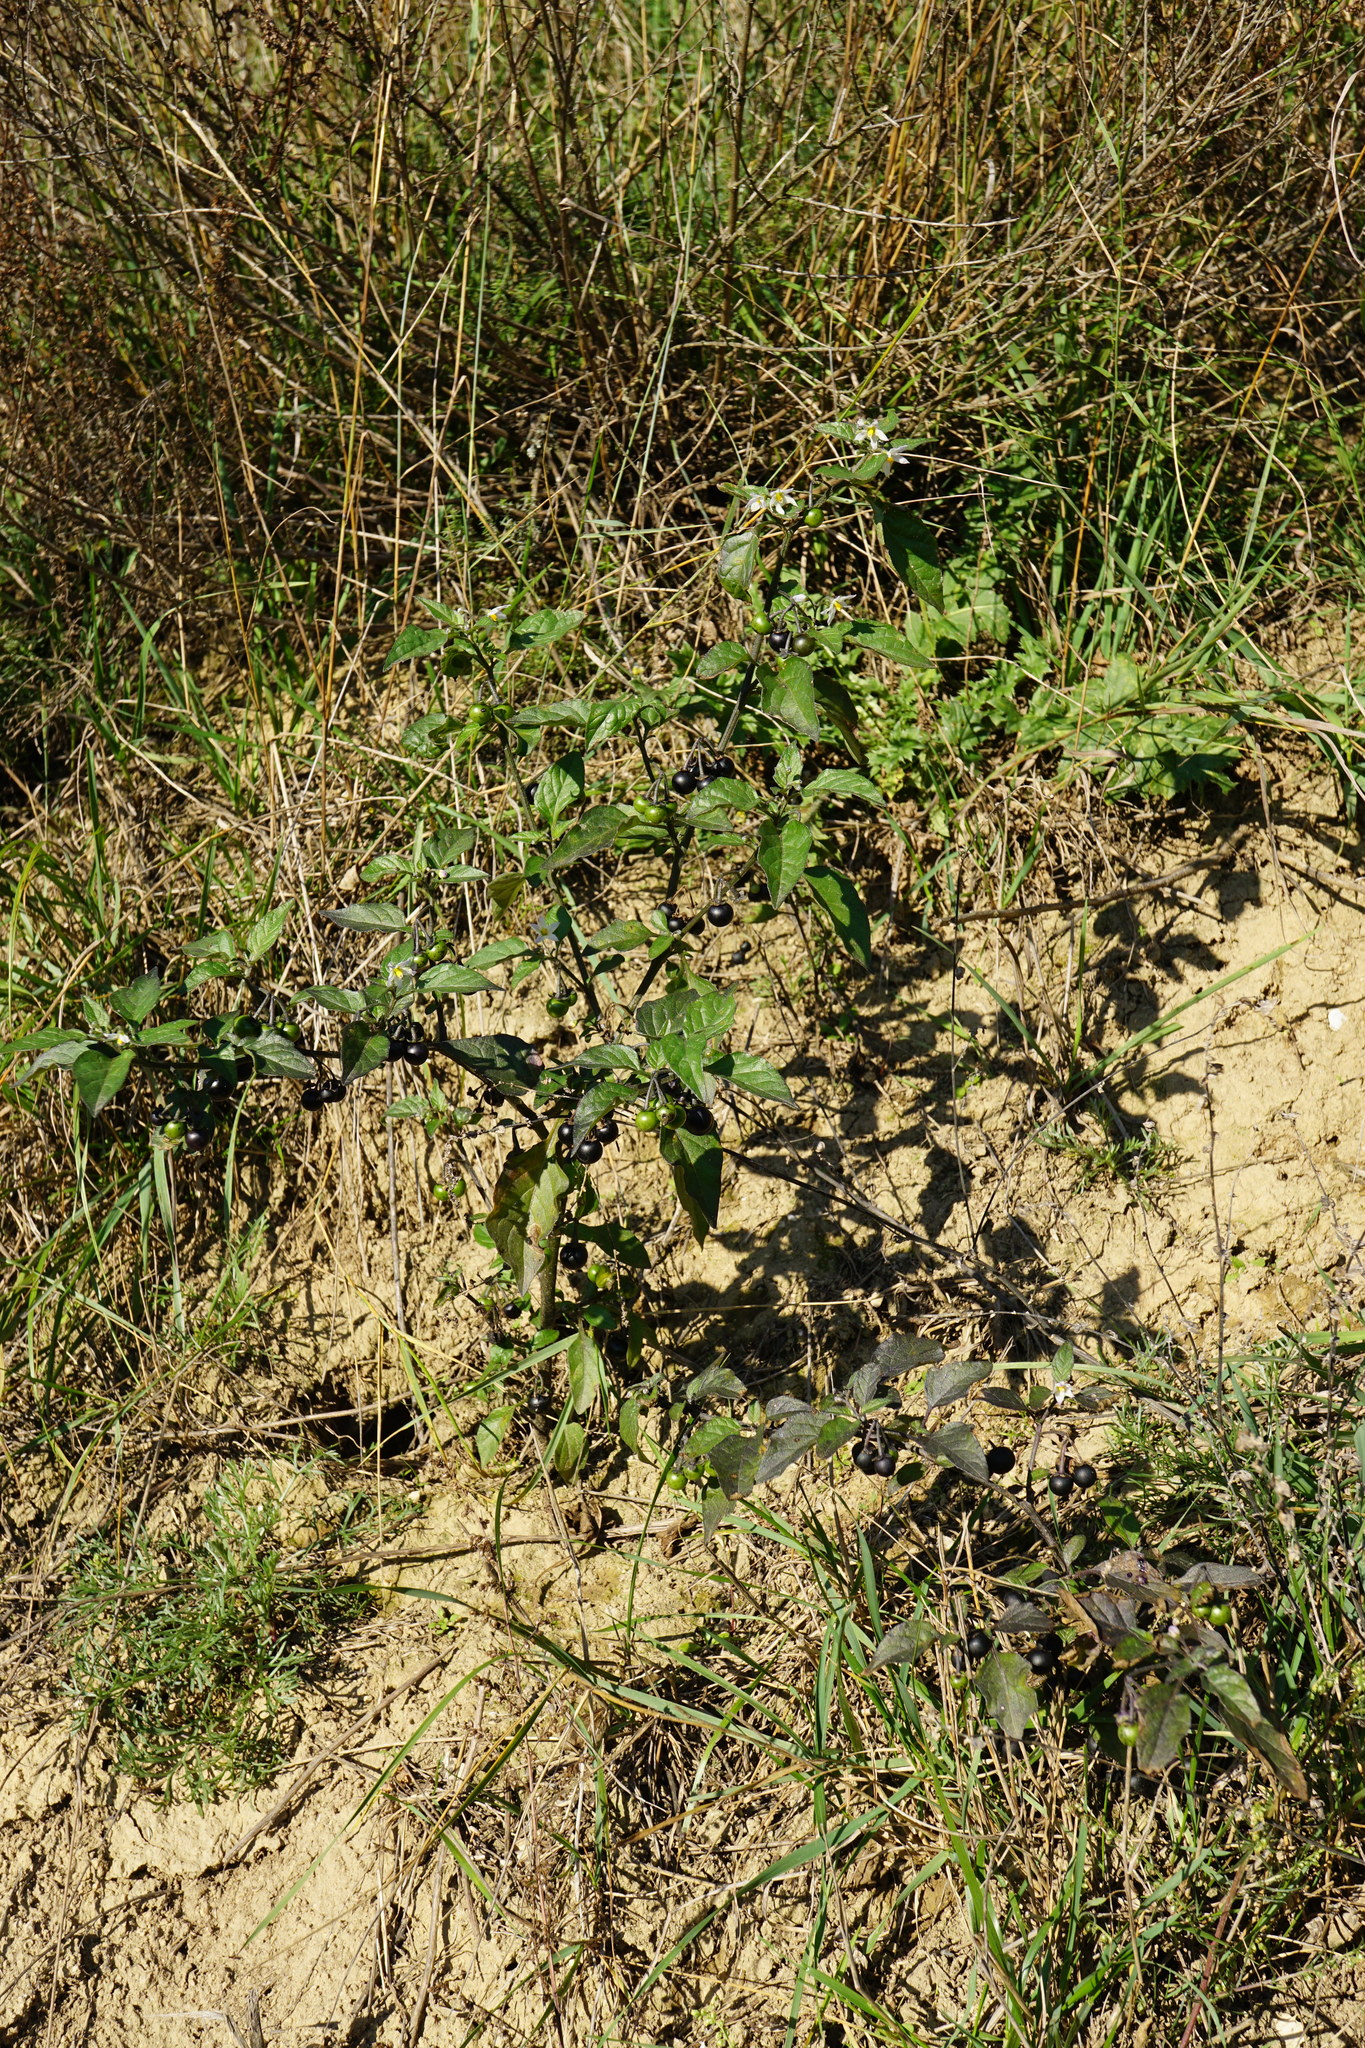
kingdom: Plantae
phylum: Tracheophyta
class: Magnoliopsida
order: Solanales
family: Solanaceae
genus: Solanum
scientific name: Solanum nigrum
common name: Black nightshade
